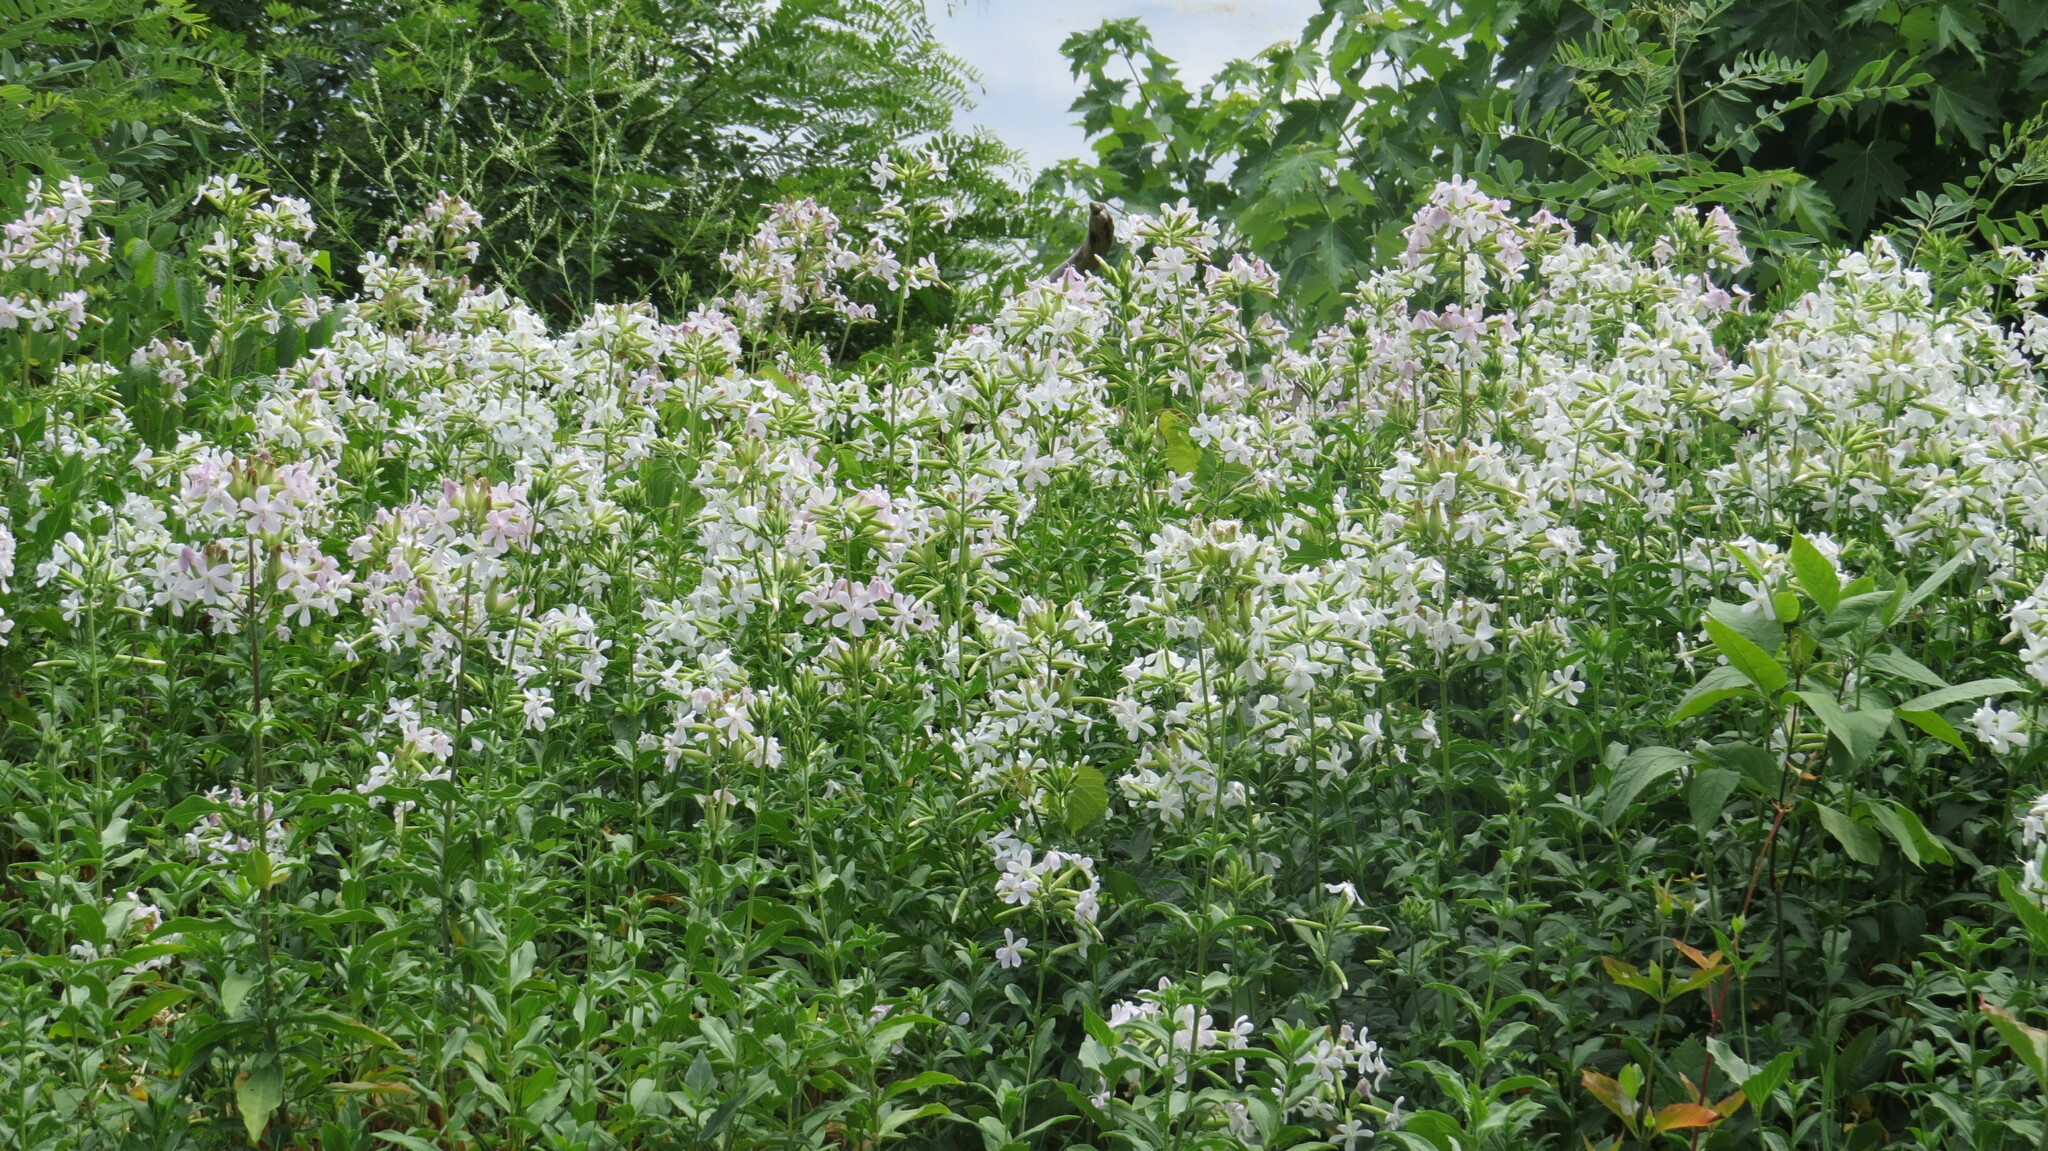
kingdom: Plantae
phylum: Tracheophyta
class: Magnoliopsida
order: Caryophyllales
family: Caryophyllaceae
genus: Saponaria
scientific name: Saponaria officinalis
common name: Soapwort
